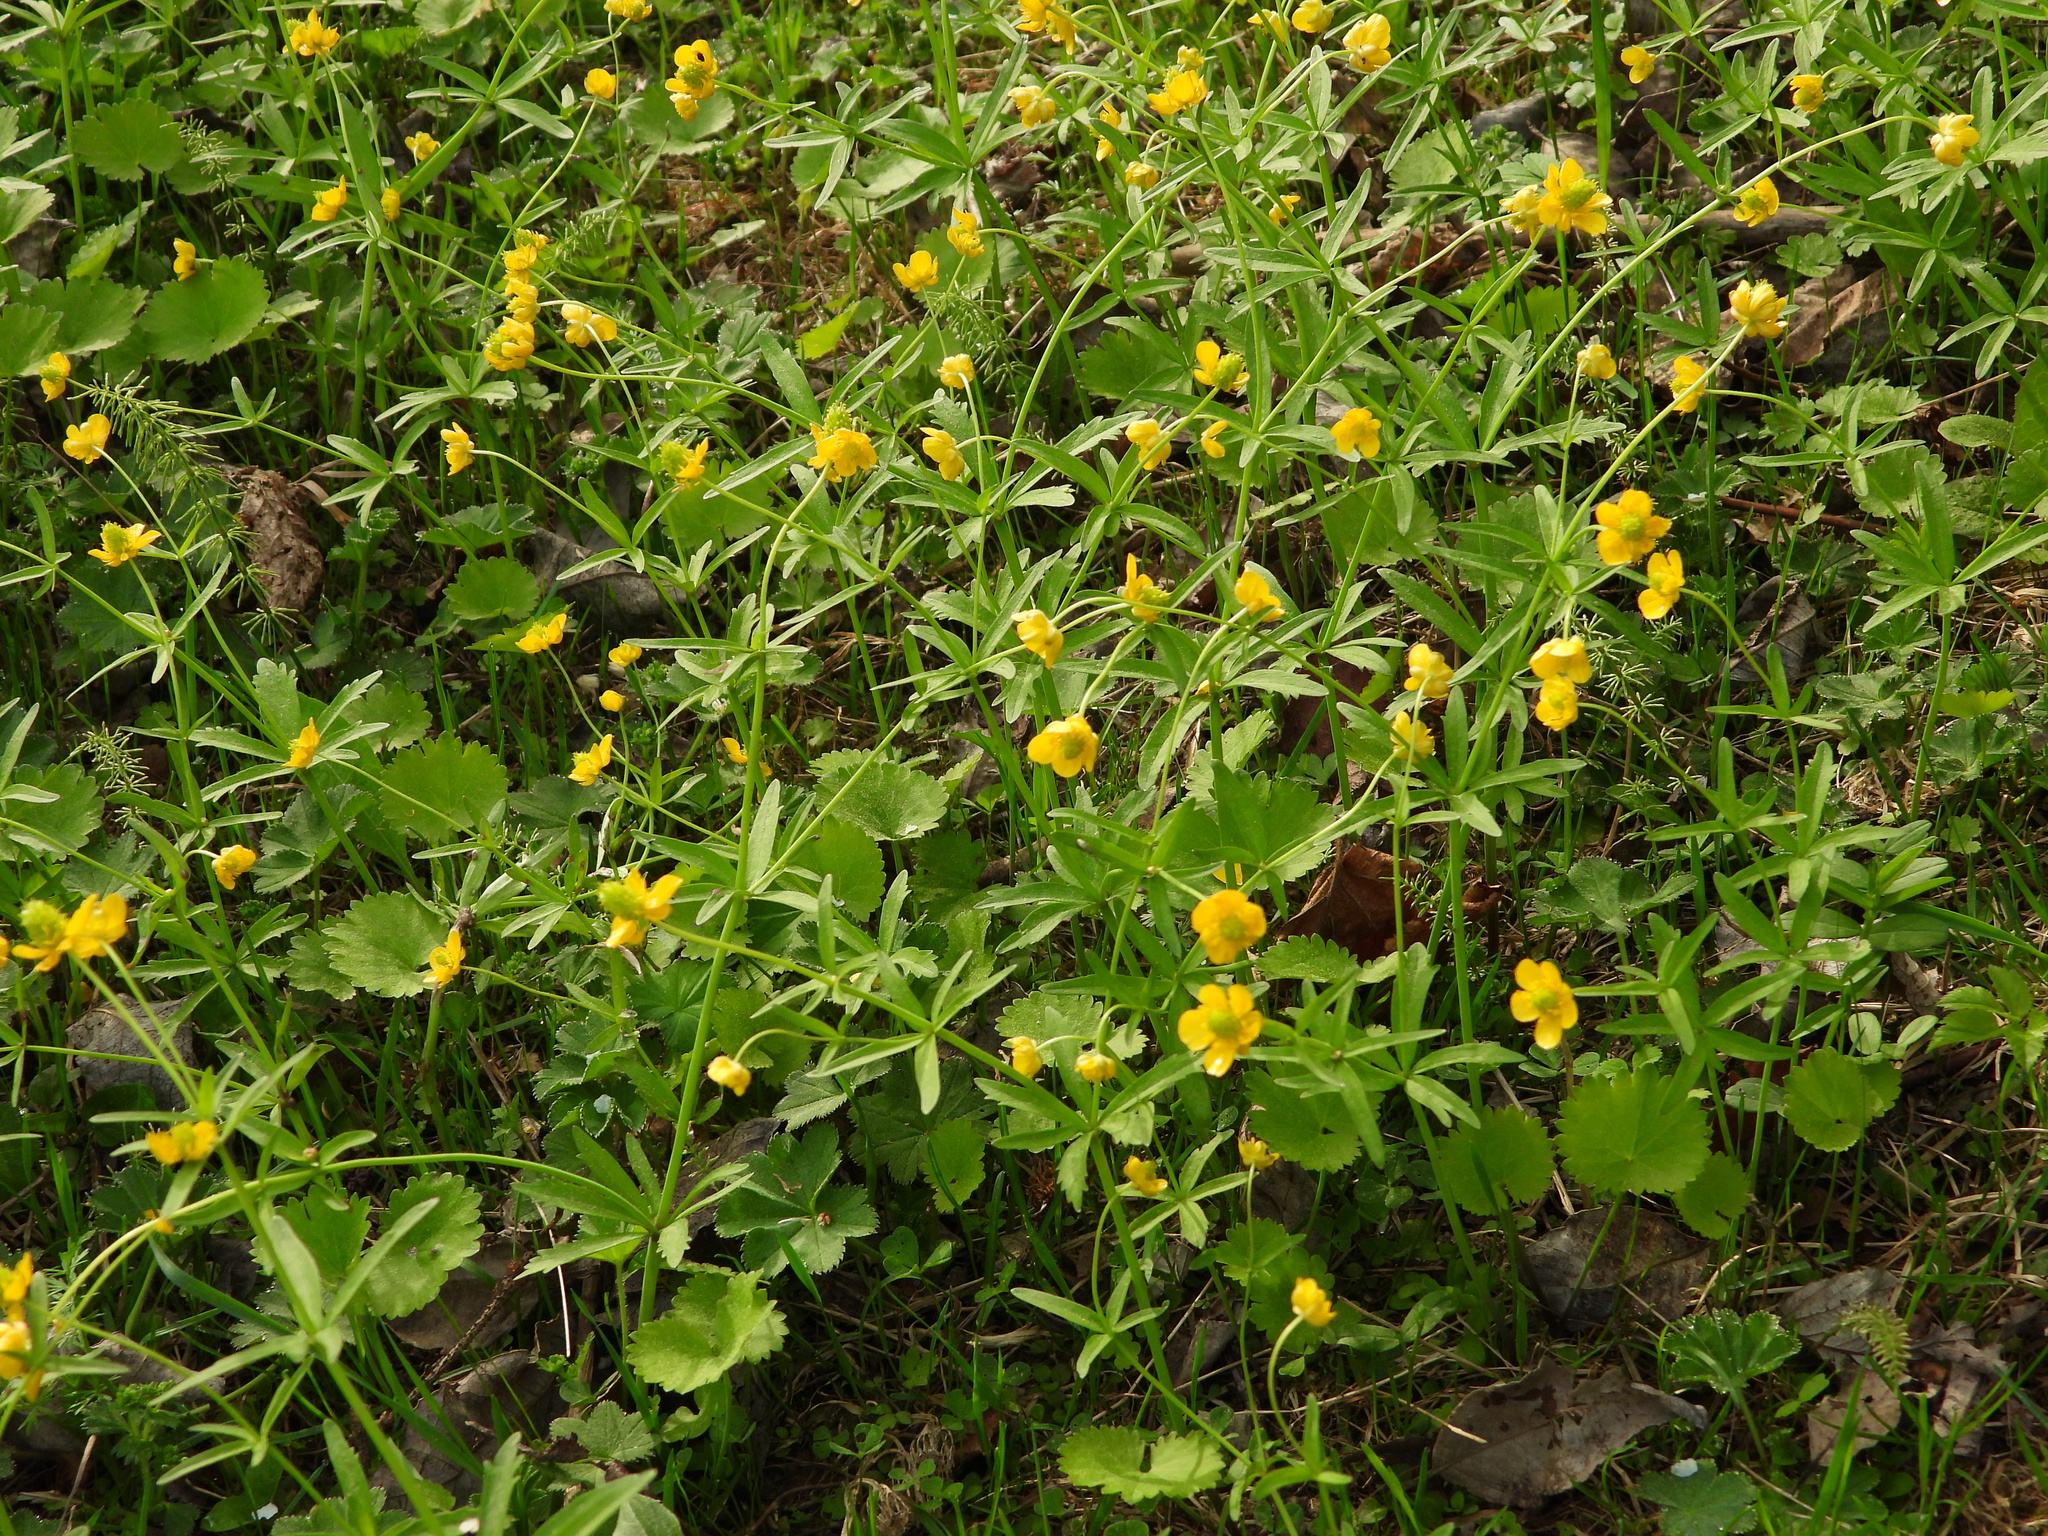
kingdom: Plantae
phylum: Tracheophyta
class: Magnoliopsida
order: Ranunculales
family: Ranunculaceae
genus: Ranunculus
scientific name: Ranunculus monophyllus
